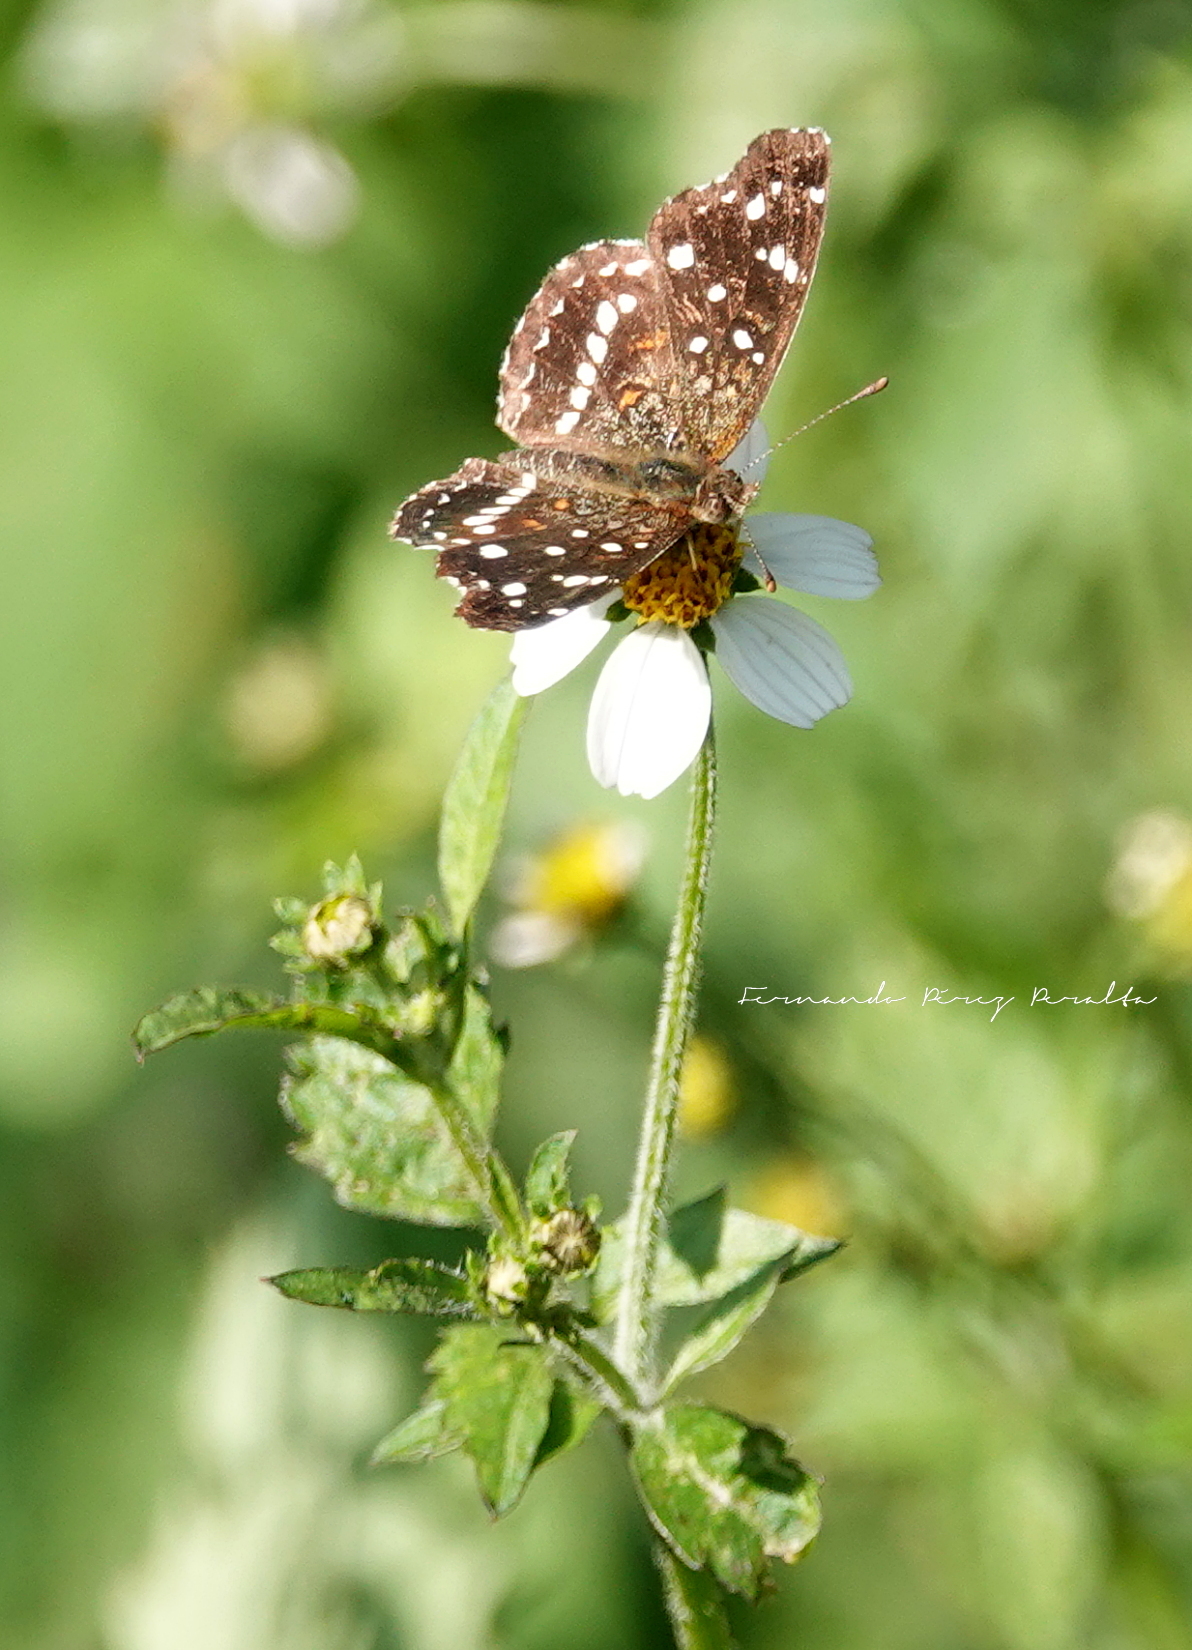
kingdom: Animalia
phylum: Arthropoda
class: Insecta
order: Lepidoptera
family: Nymphalidae
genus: Anthanassa
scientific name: Anthanassa texana
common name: Texan crescent
